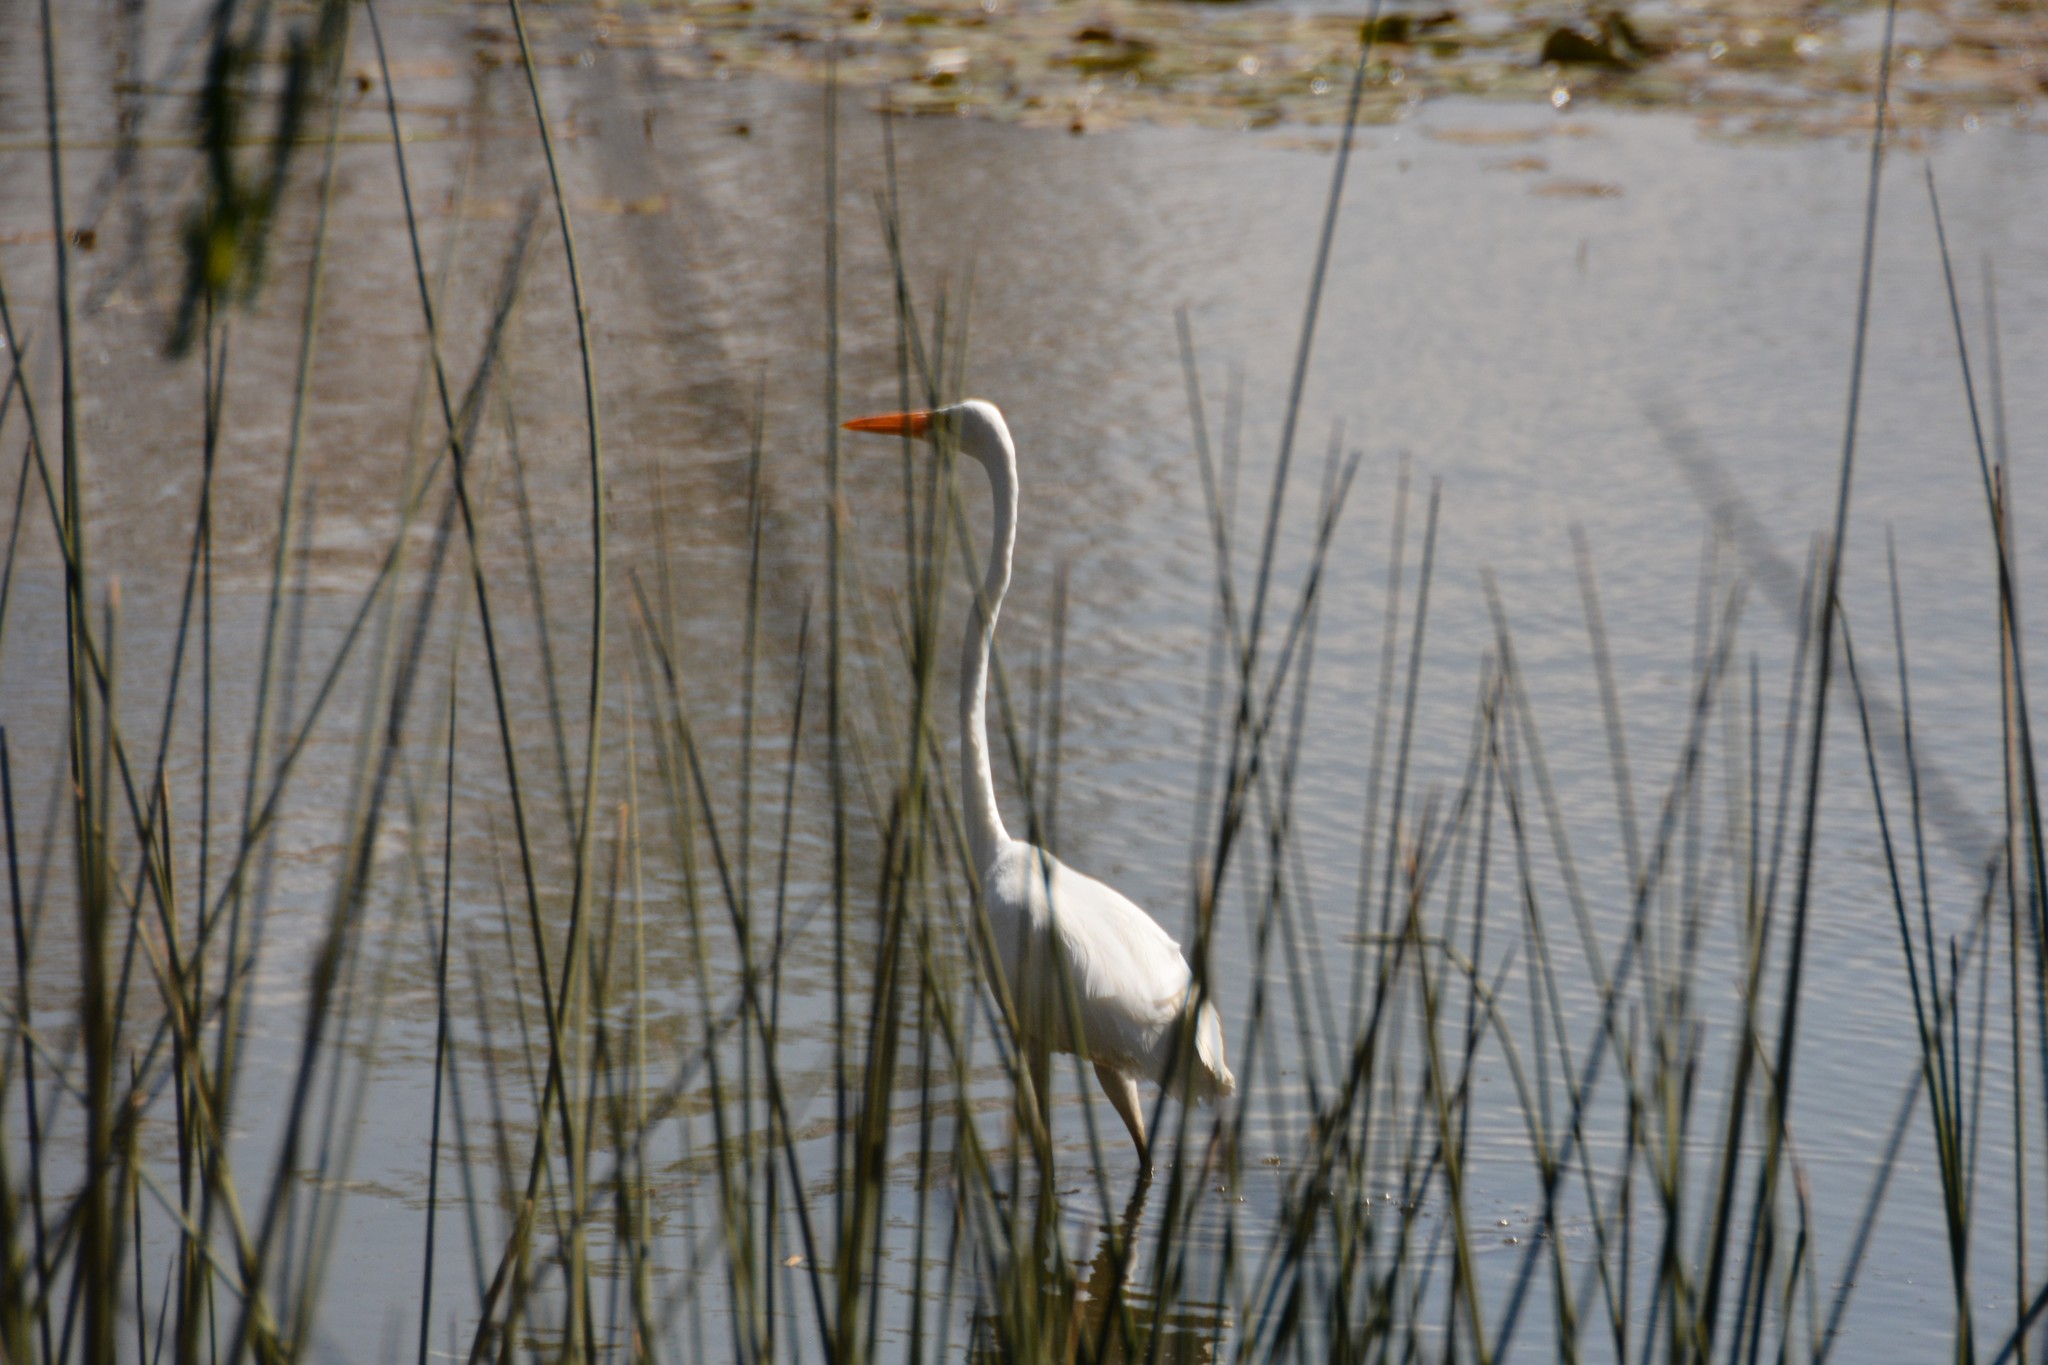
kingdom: Animalia
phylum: Chordata
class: Aves
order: Pelecaniformes
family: Ardeidae
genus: Ardea
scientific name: Ardea alba
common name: Great egret
